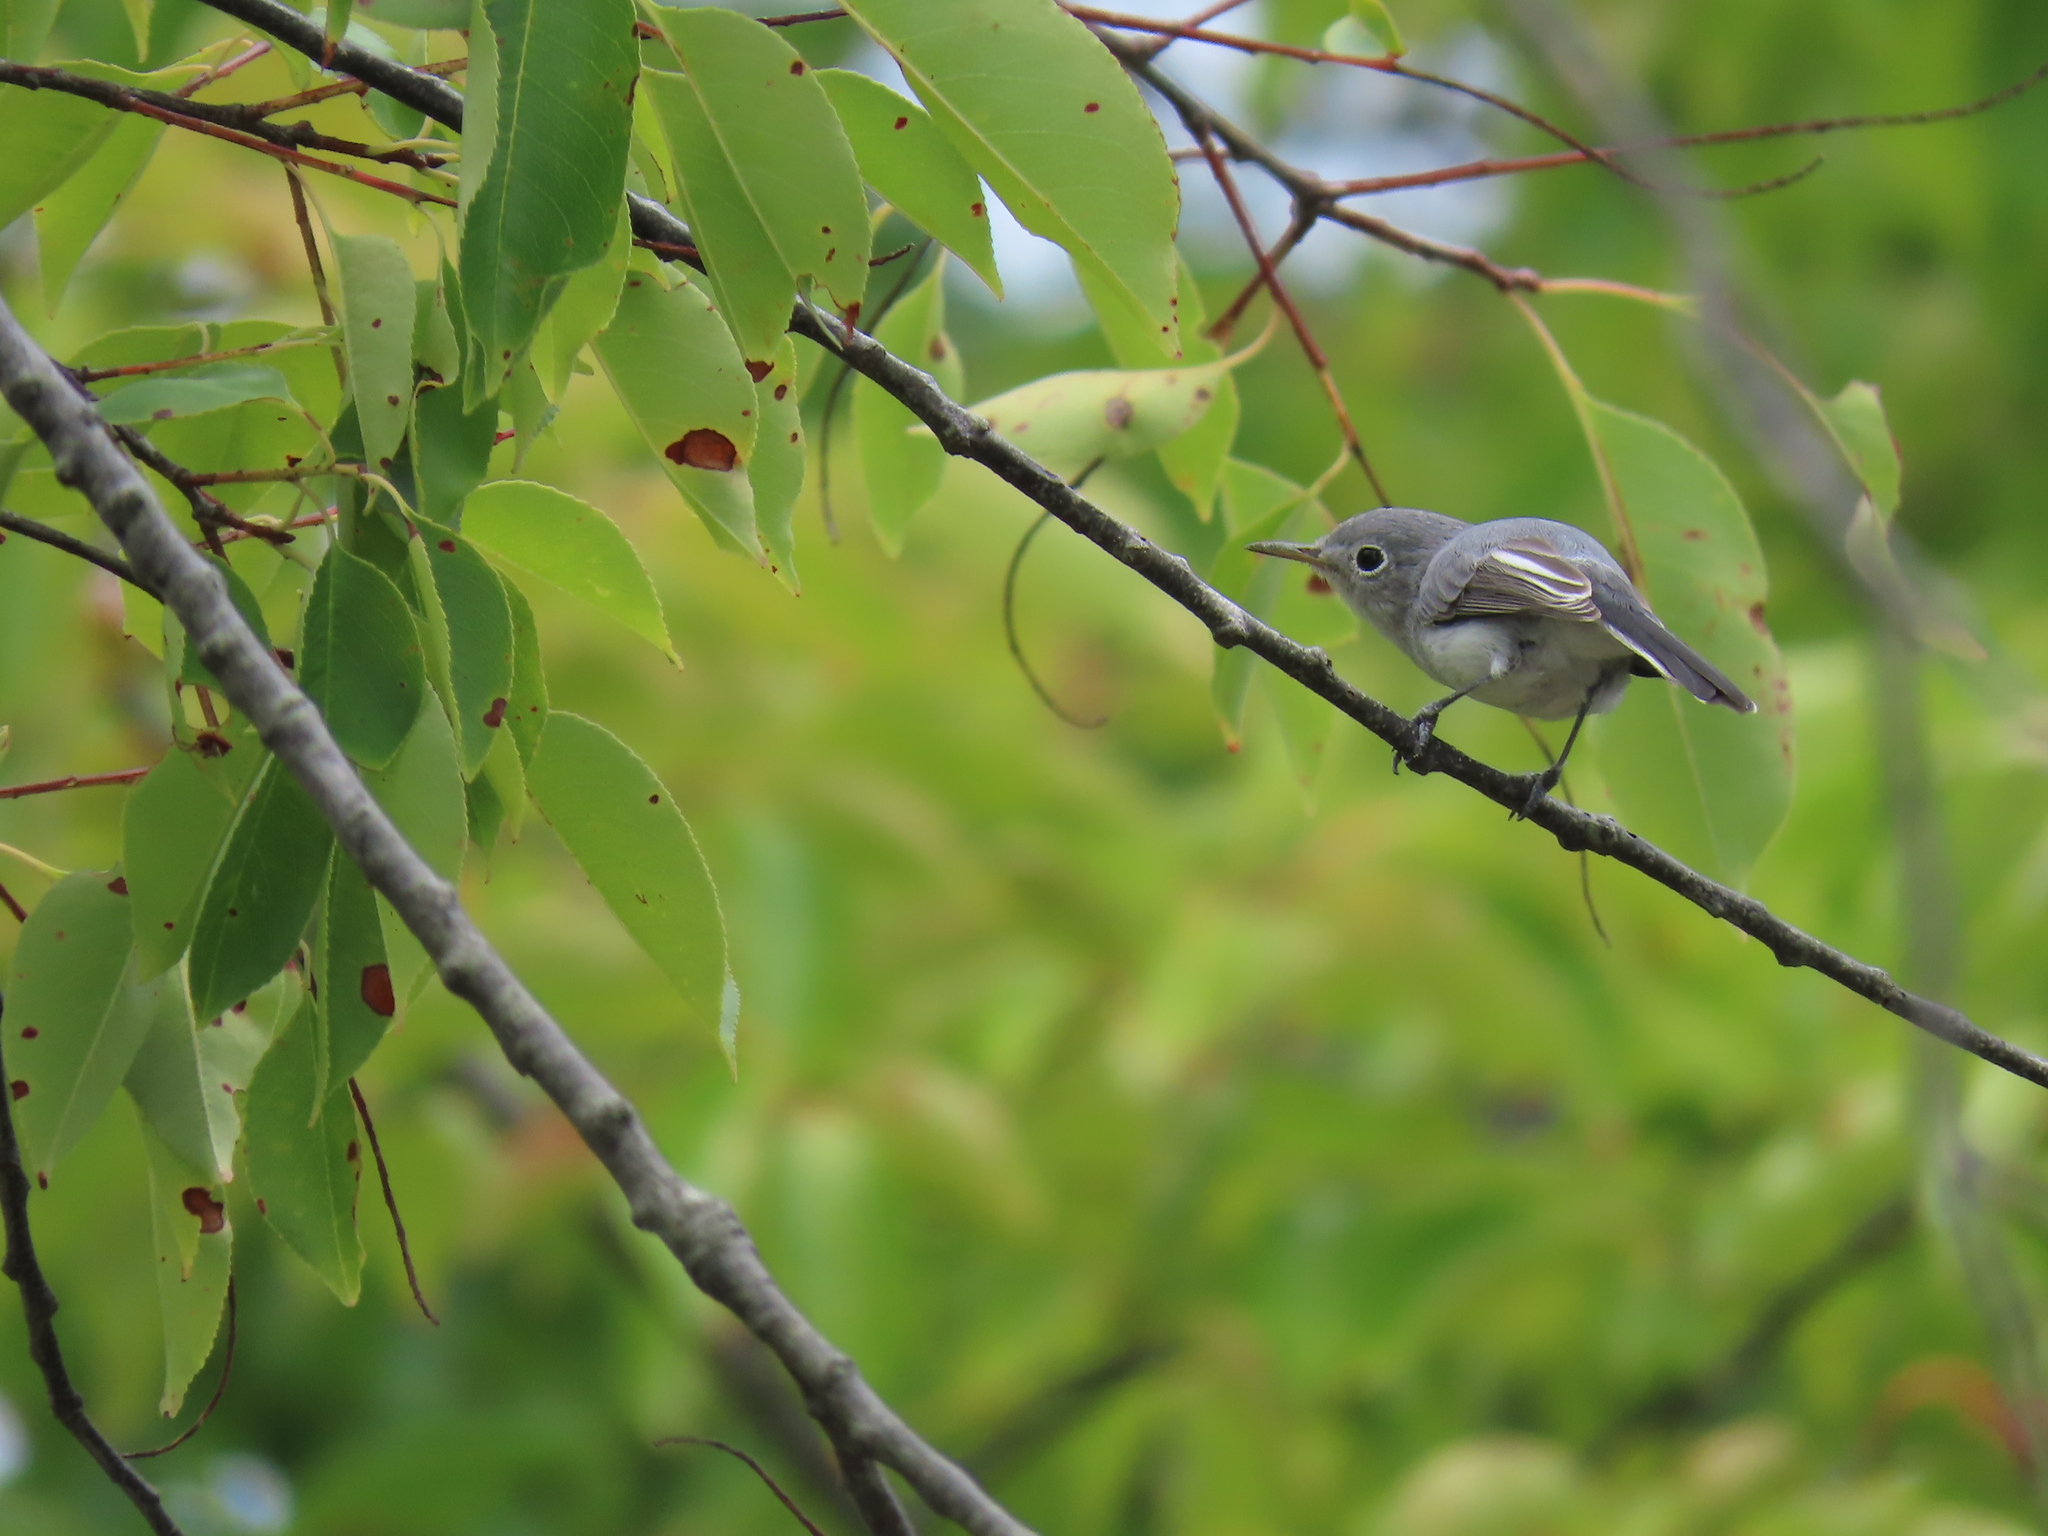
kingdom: Animalia
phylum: Chordata
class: Aves
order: Passeriformes
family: Polioptilidae
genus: Polioptila
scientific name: Polioptila caerulea
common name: Blue-gray gnatcatcher
